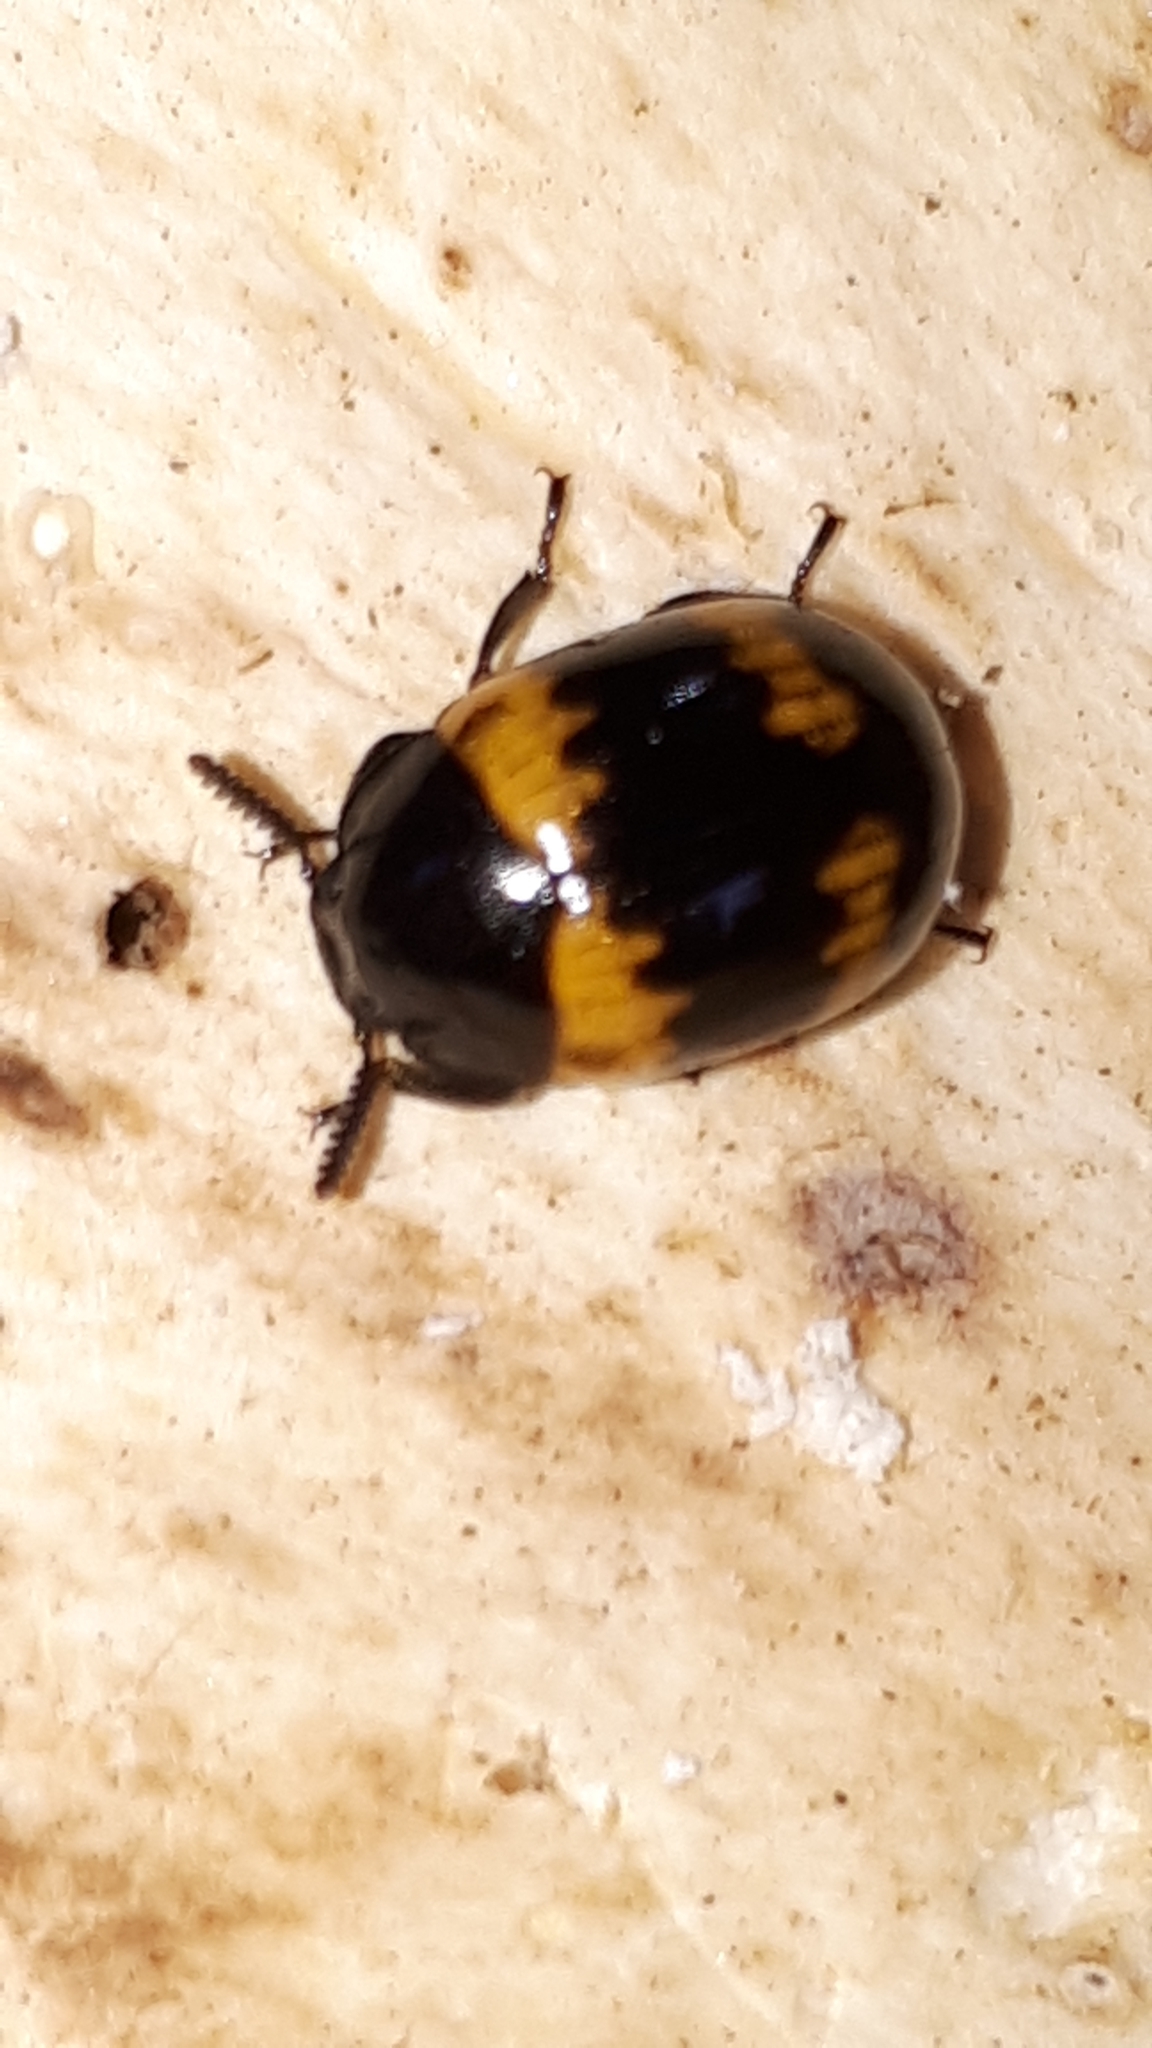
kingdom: Animalia
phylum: Arthropoda
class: Insecta
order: Coleoptera
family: Tenebrionidae
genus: Diaperis
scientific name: Diaperis boleti
